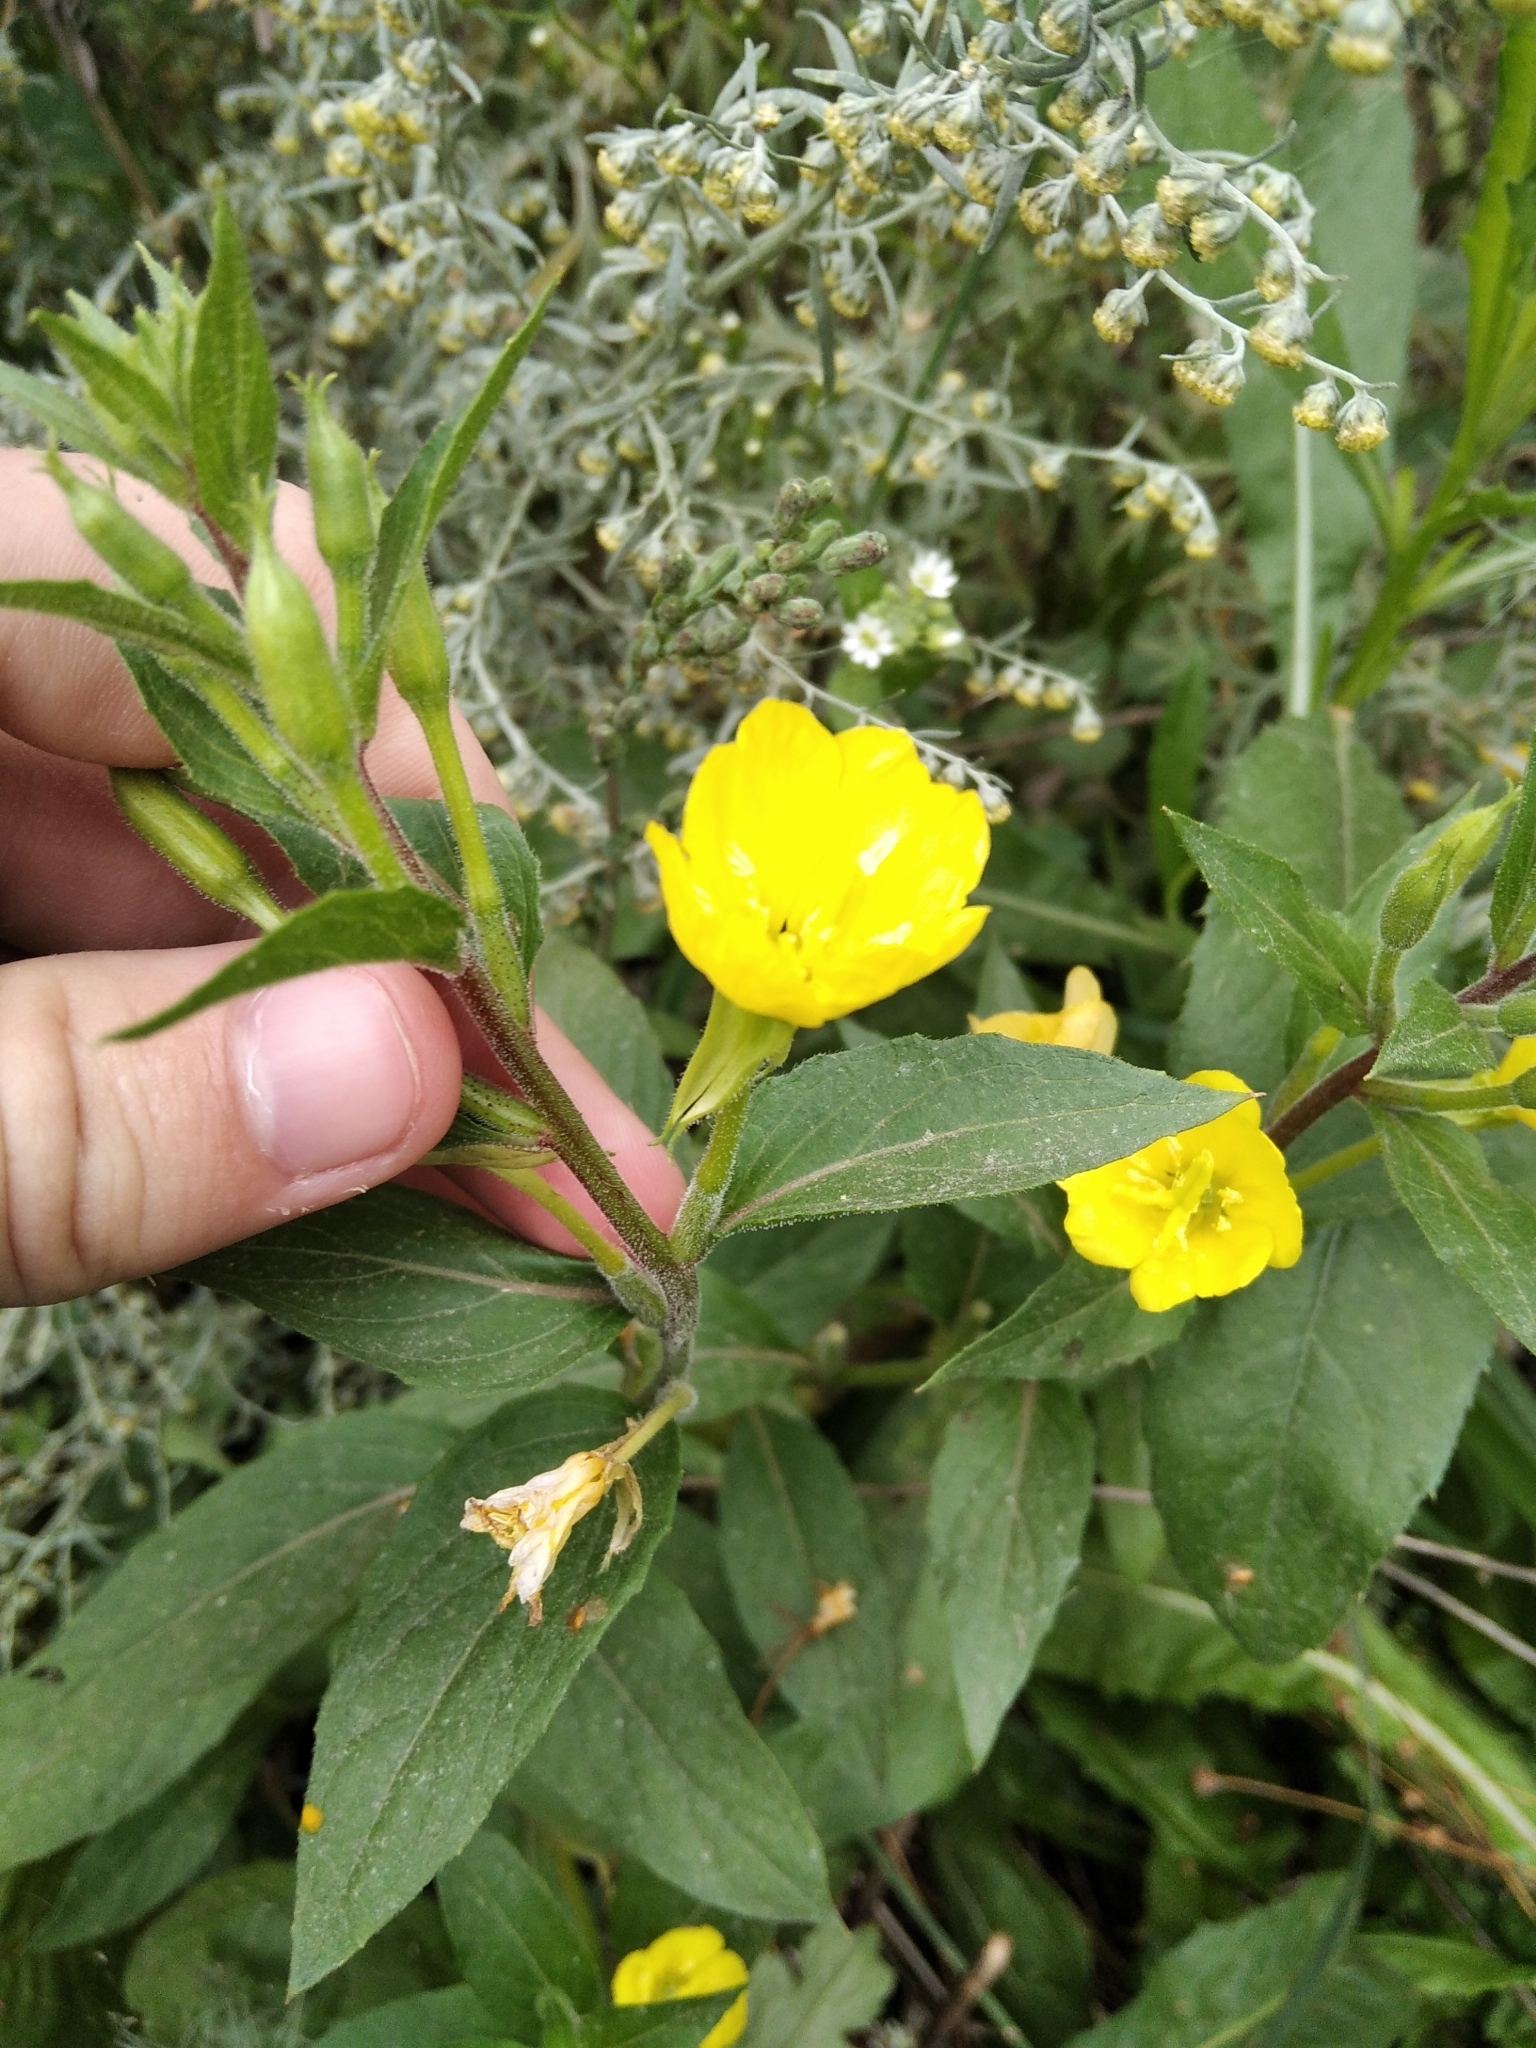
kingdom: Plantae
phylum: Tracheophyta
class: Magnoliopsida
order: Myrtales
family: Onagraceae
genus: Oenothera
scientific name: Oenothera rubricaulis
